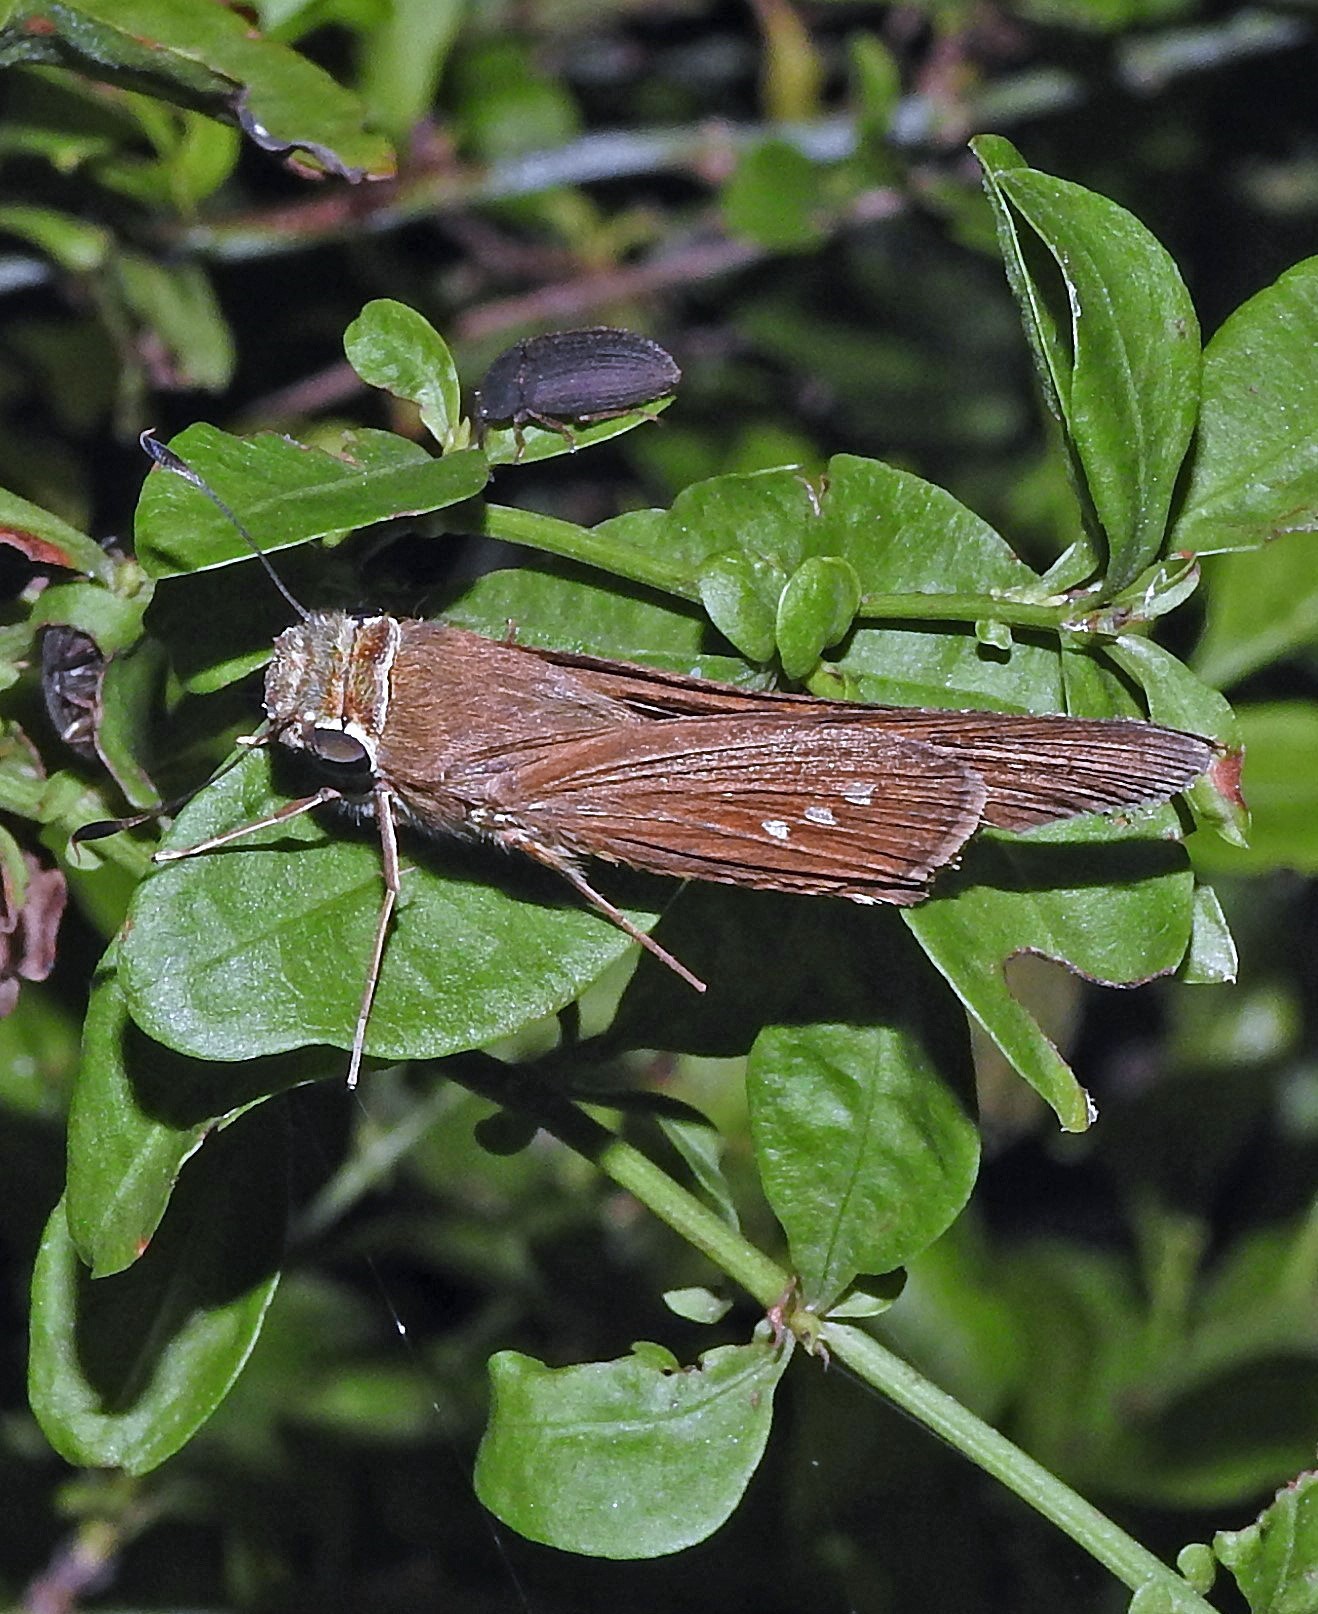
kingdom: Animalia
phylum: Arthropoda
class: Insecta
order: Lepidoptera
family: Hesperiidae
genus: Calpodes
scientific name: Calpodes ethlius
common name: Brazilian skipper
